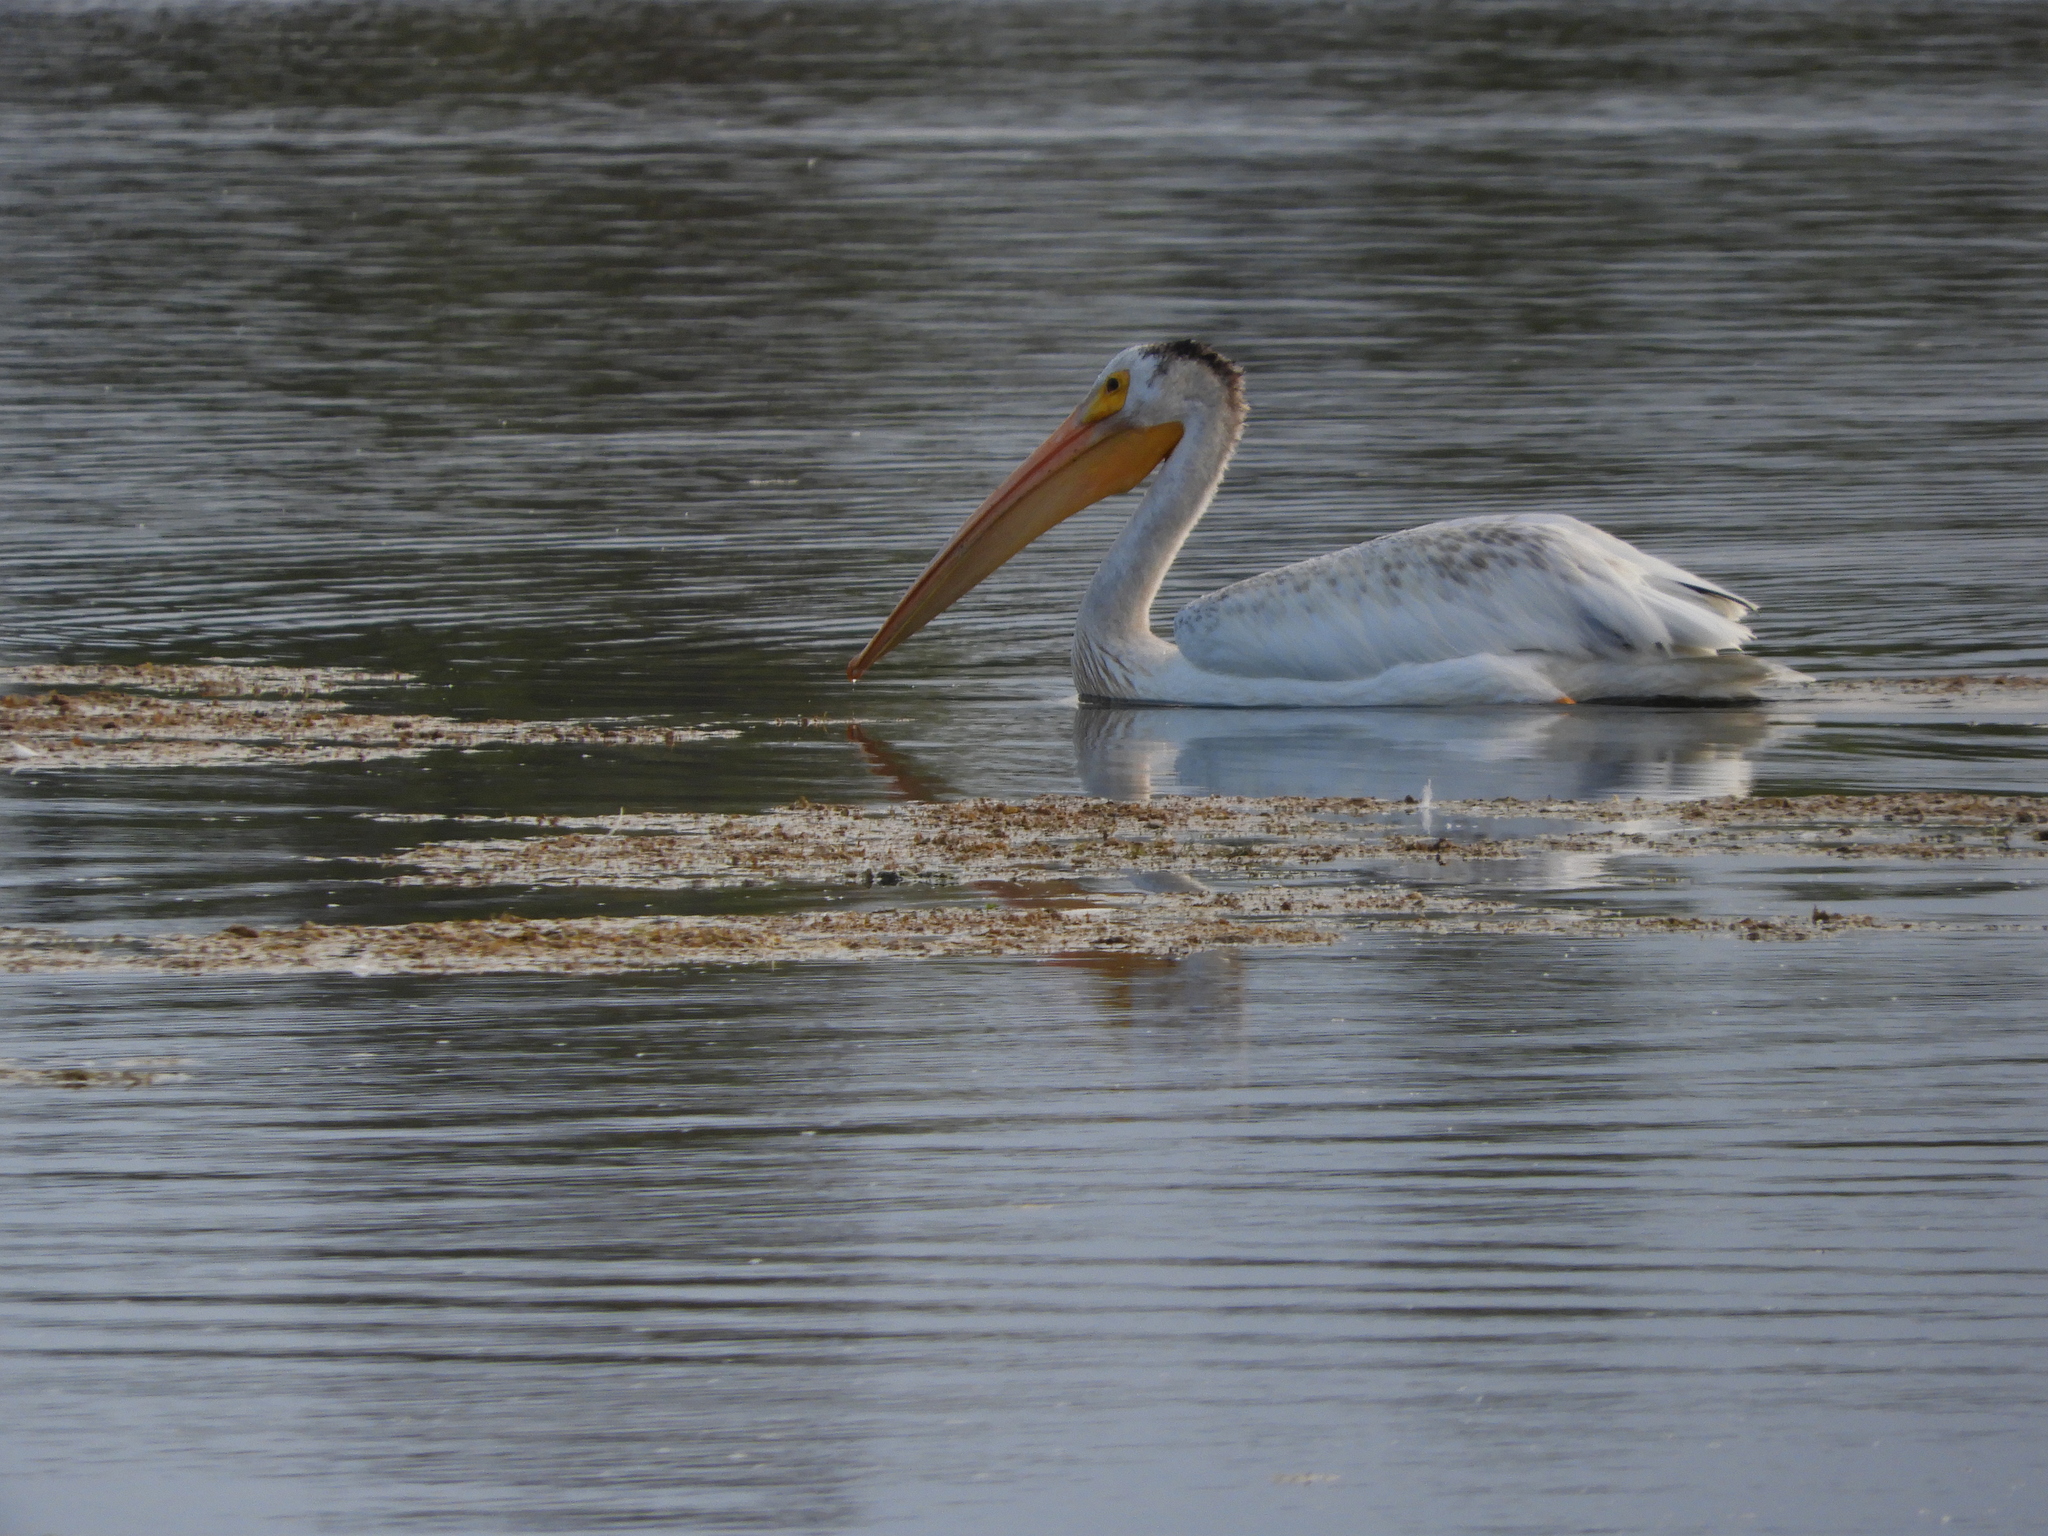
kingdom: Animalia
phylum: Chordata
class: Aves
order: Pelecaniformes
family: Pelecanidae
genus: Pelecanus
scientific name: Pelecanus erythrorhynchos
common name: American white pelican
